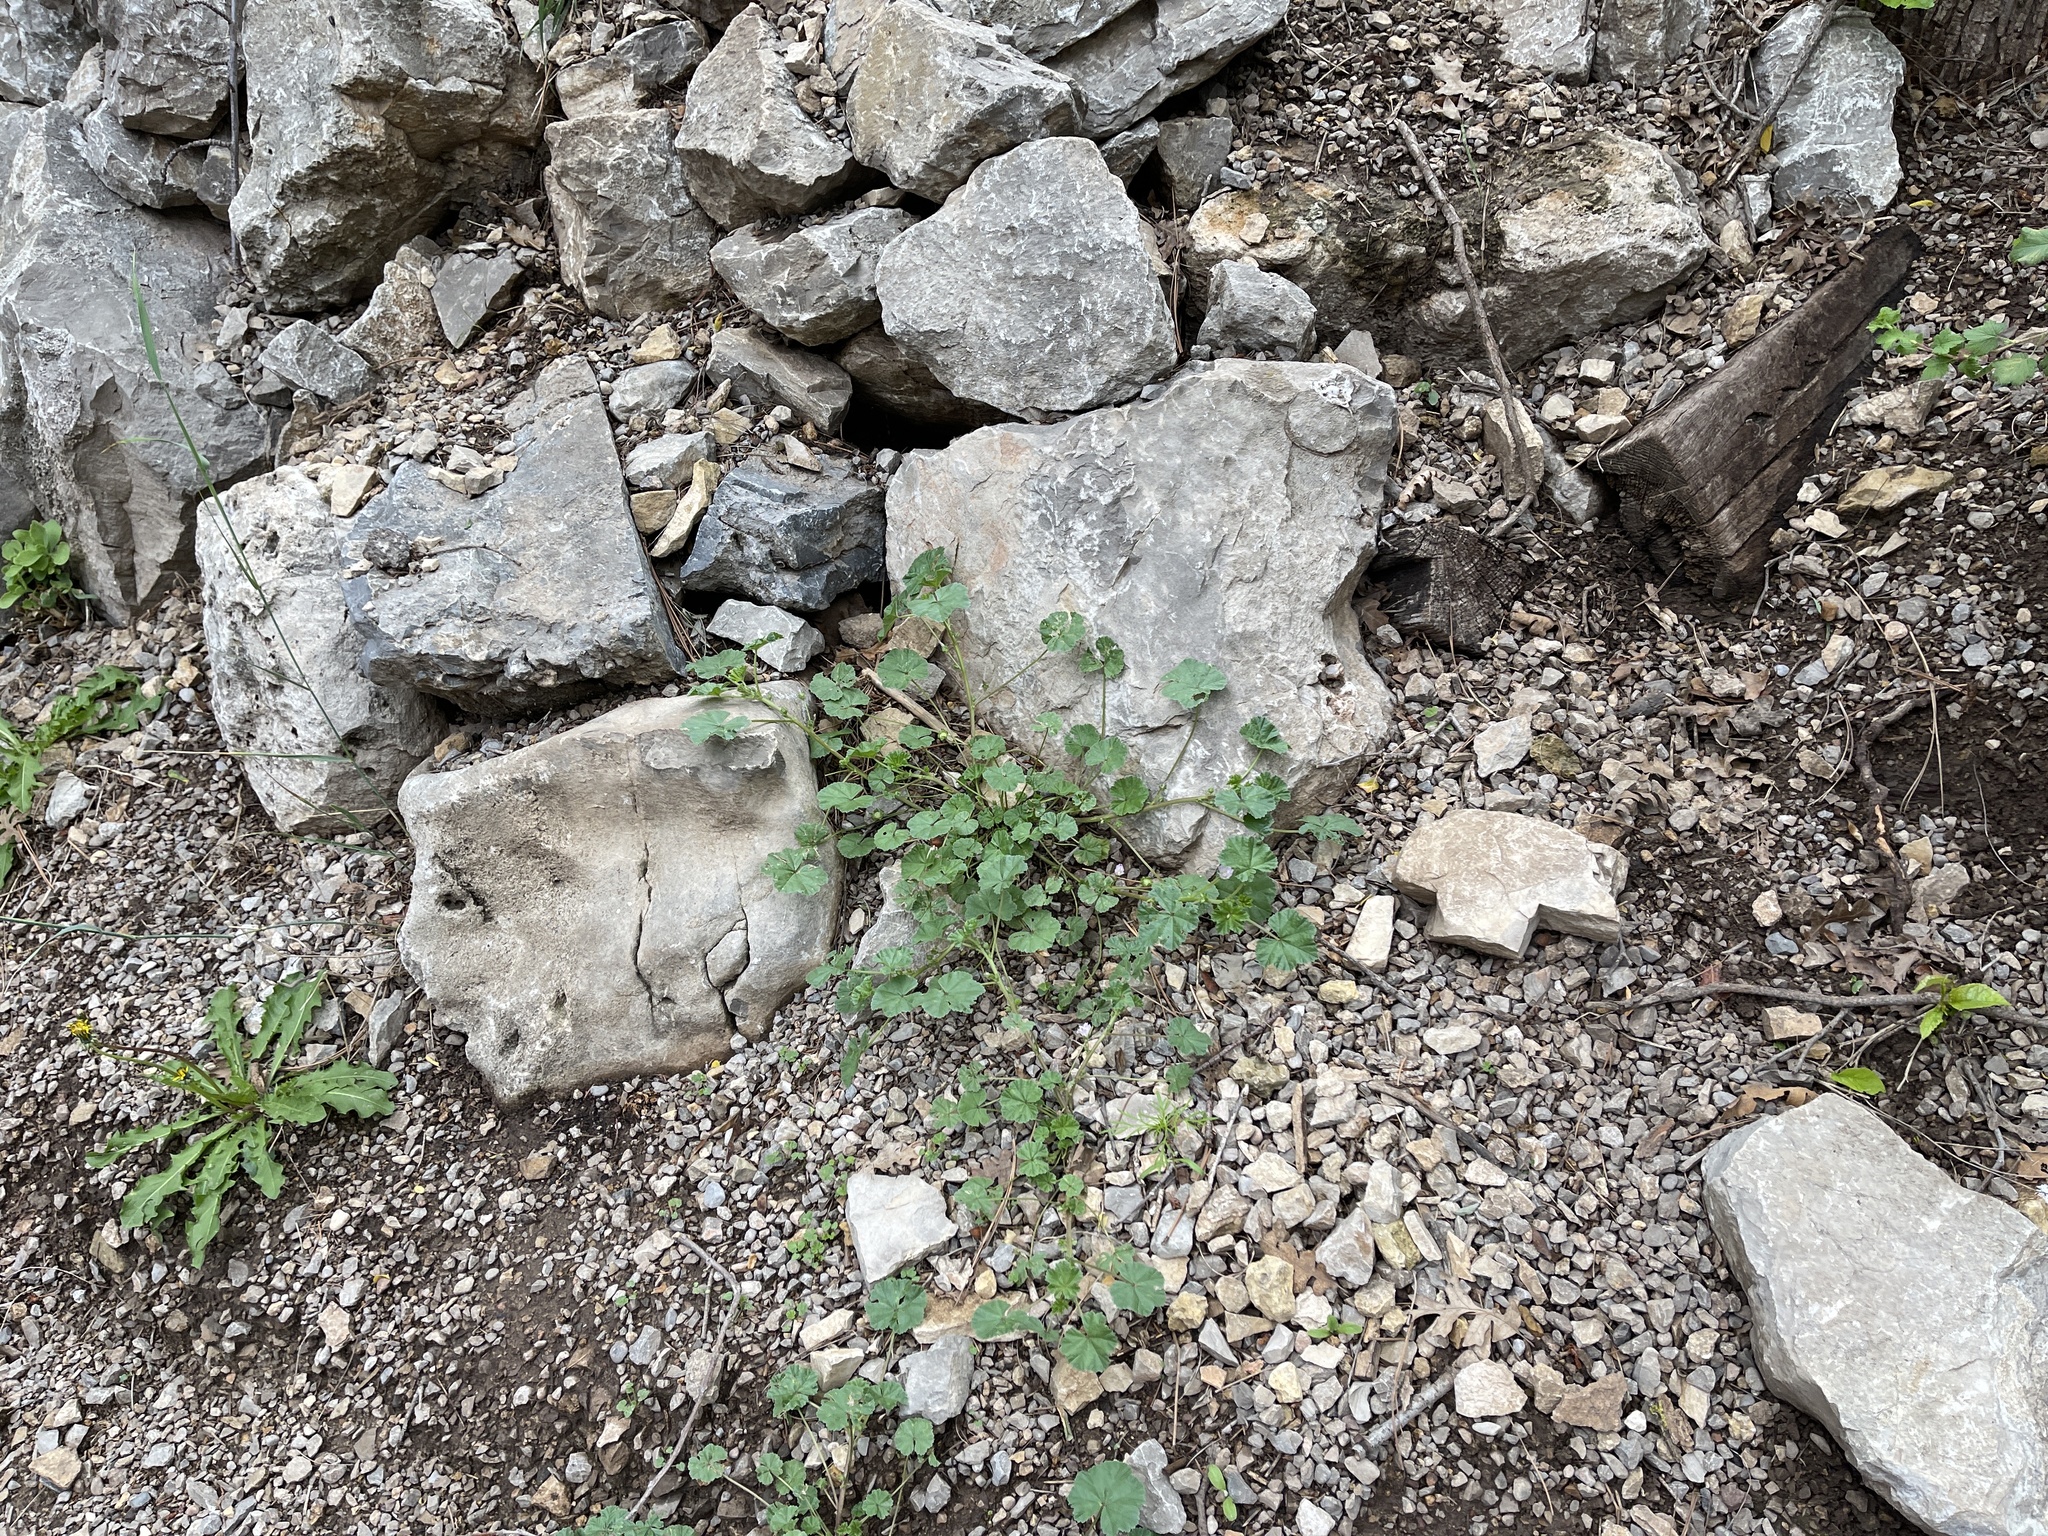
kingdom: Plantae
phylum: Tracheophyta
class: Magnoliopsida
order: Malvales
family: Malvaceae
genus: Malva
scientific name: Malva neglecta
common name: Common mallow
